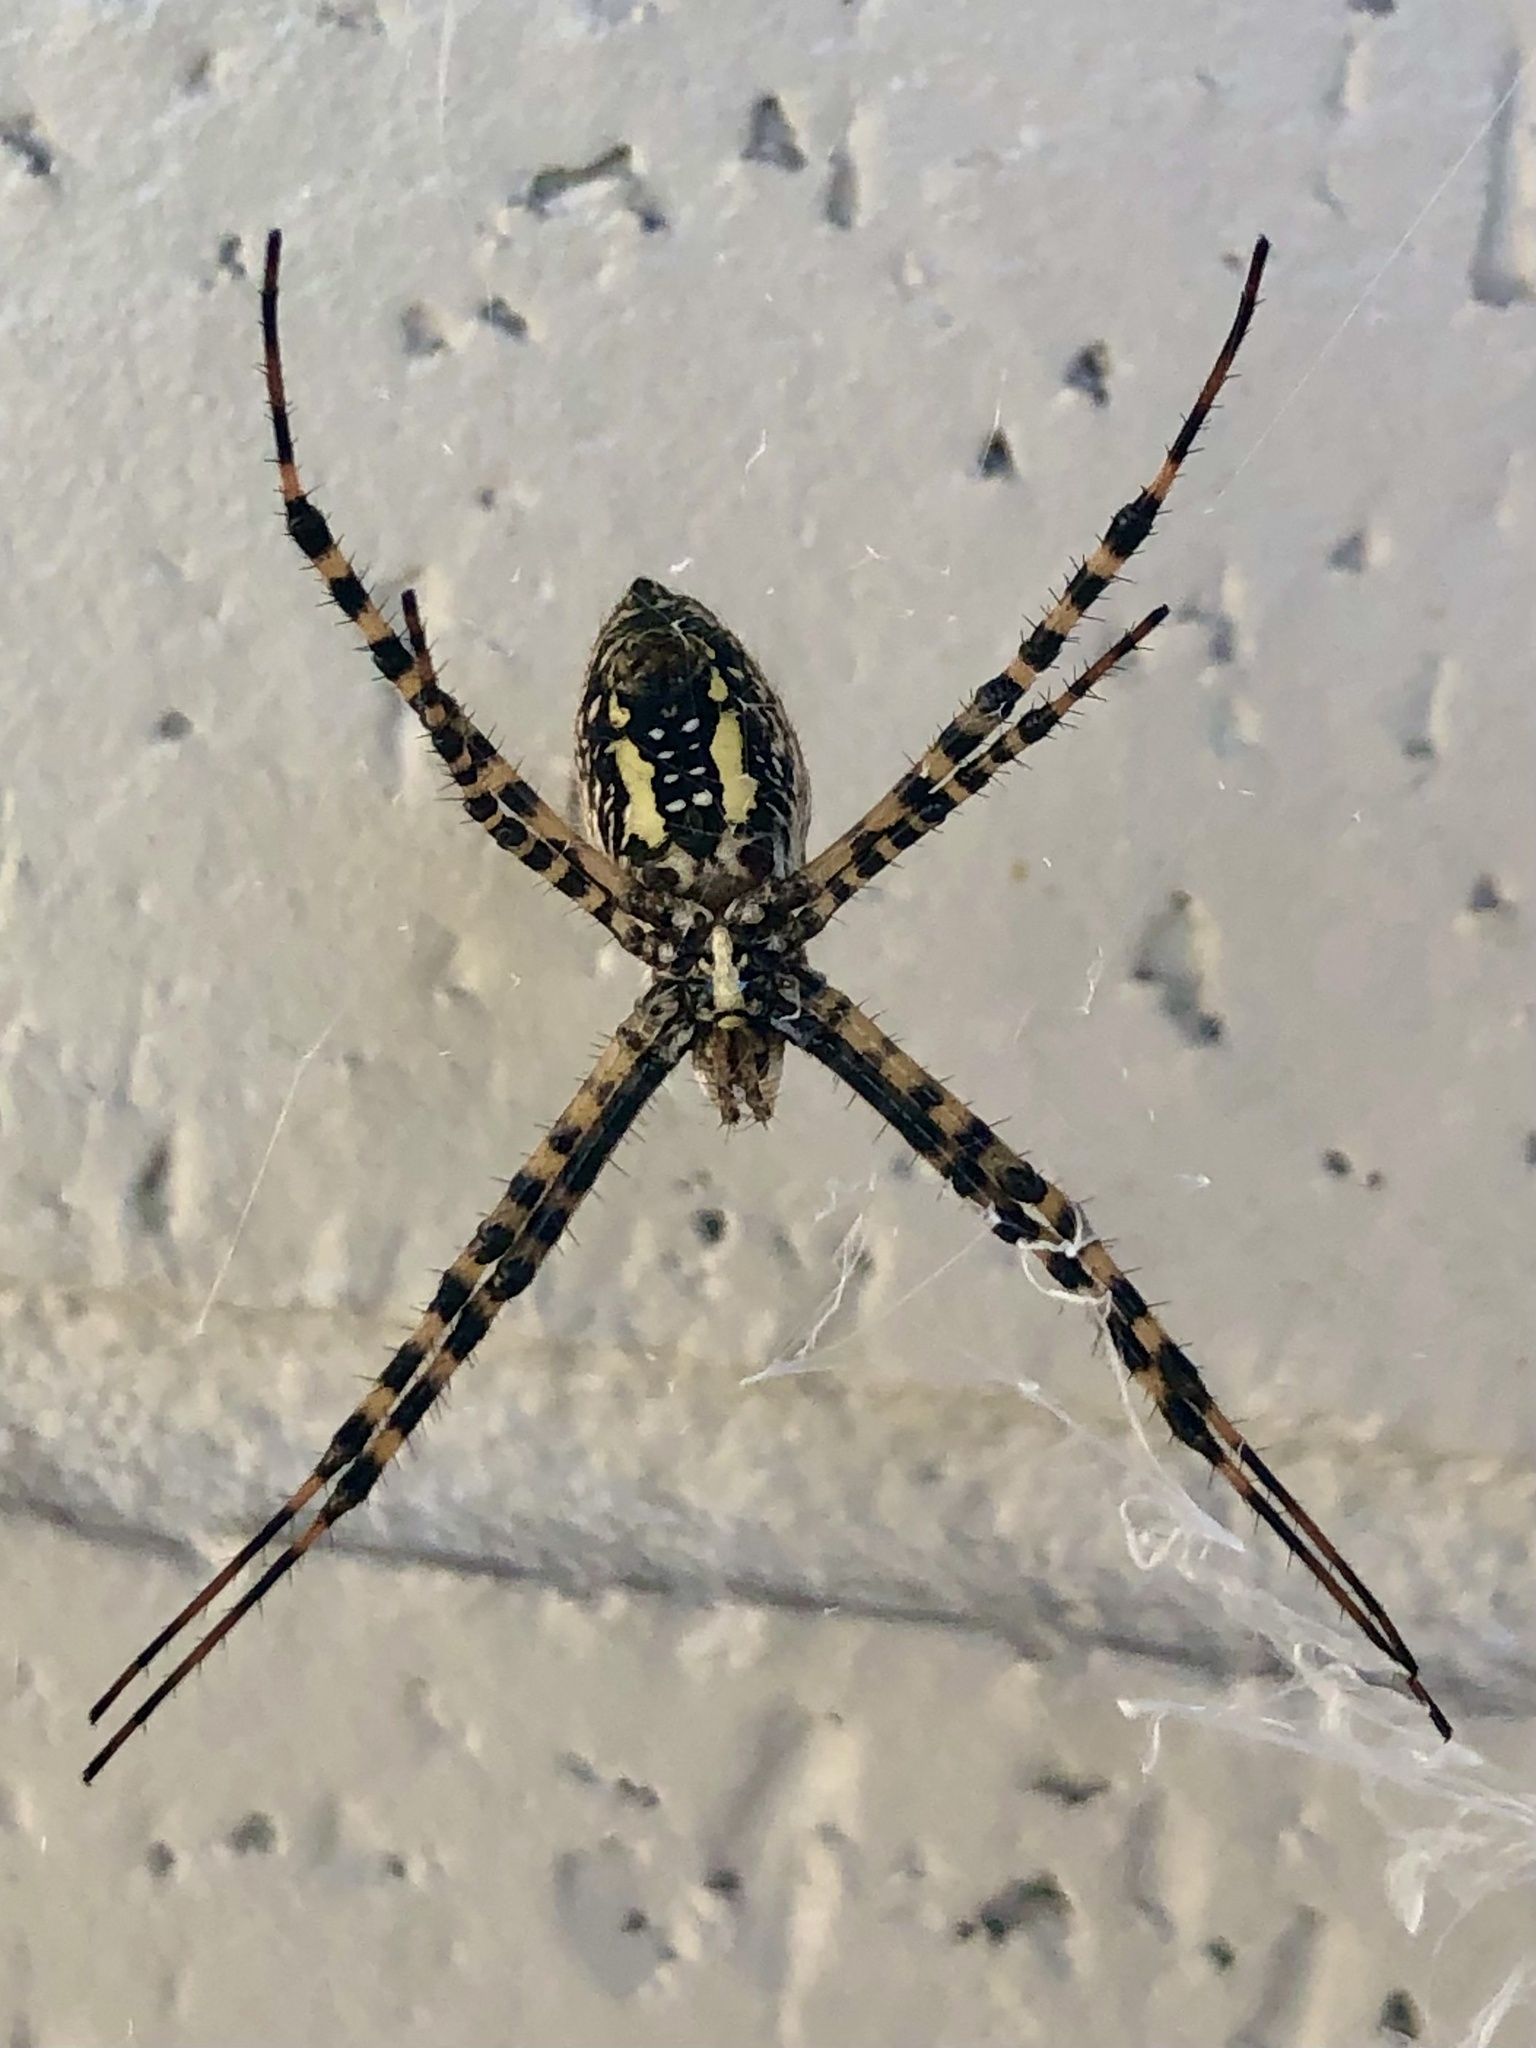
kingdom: Animalia
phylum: Arthropoda
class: Arachnida
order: Araneae
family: Araneidae
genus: Argiope
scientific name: Argiope trifasciata
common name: Banded garden spider
